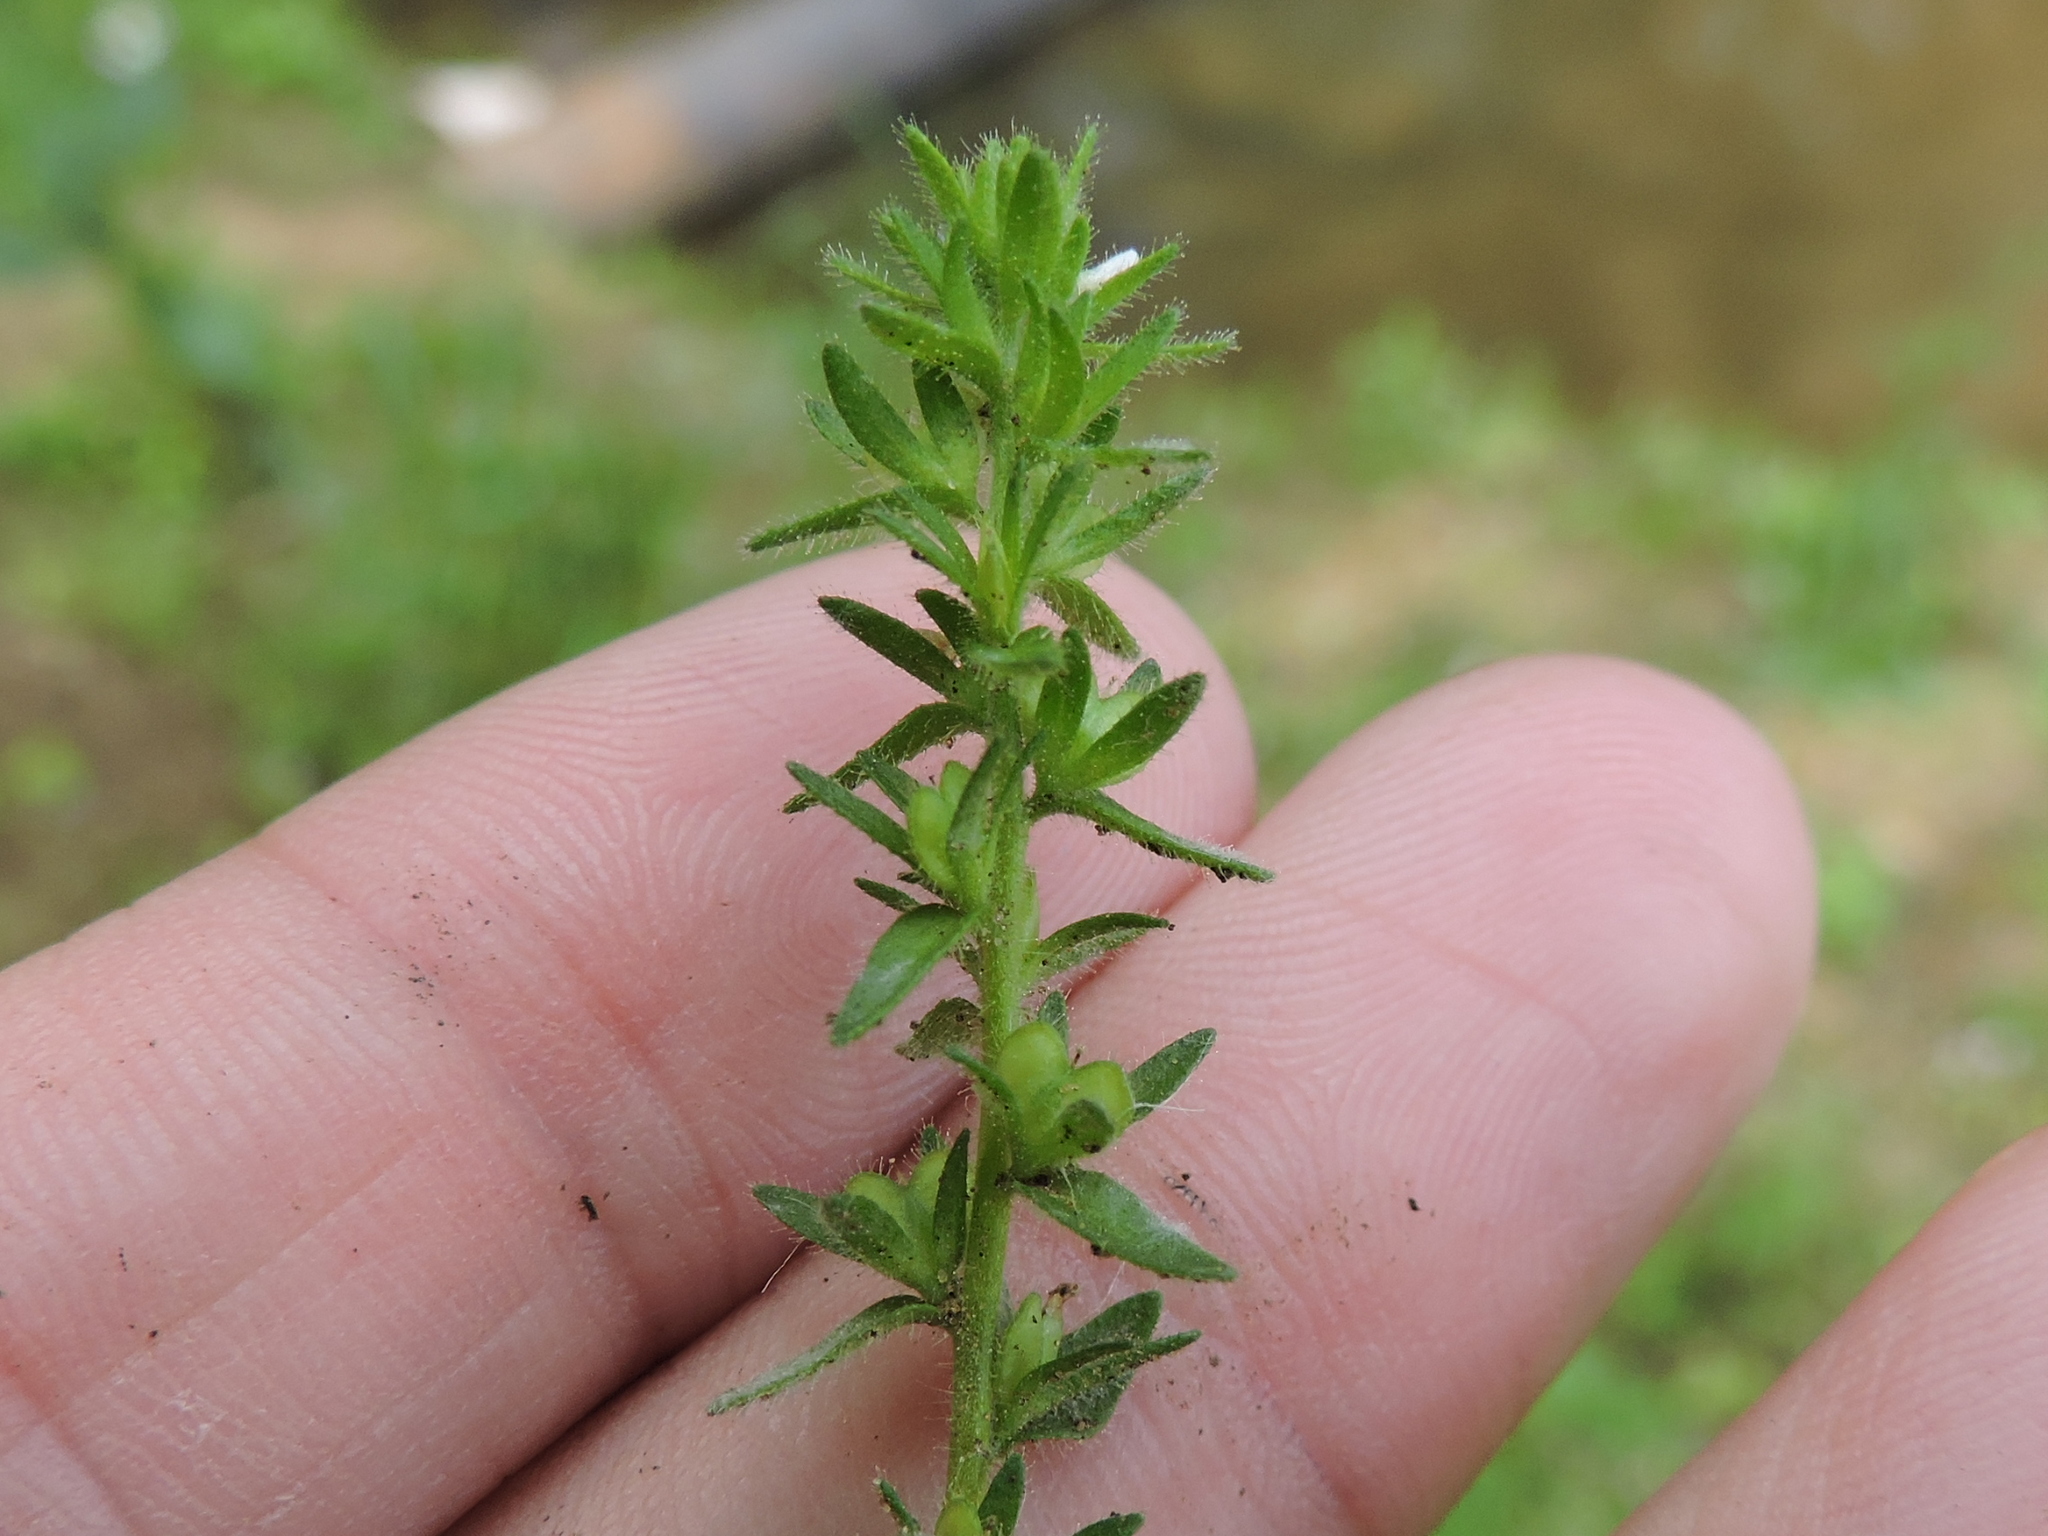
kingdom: Plantae
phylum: Tracheophyta
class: Magnoliopsida
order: Lamiales
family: Plantaginaceae
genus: Veronica
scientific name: Veronica arvensis
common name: Corn speedwell
